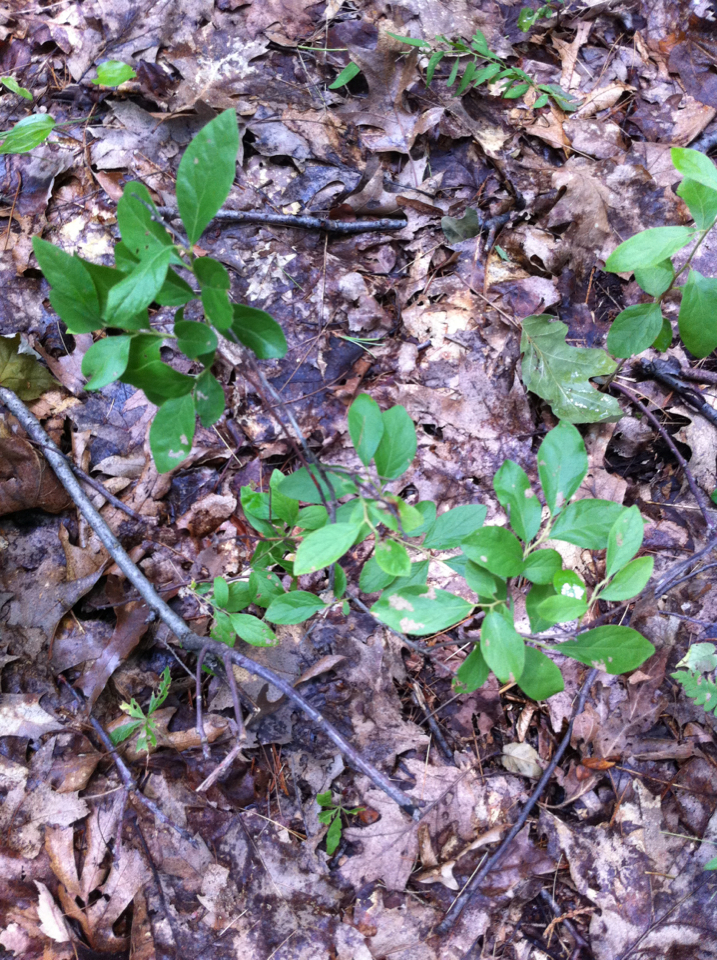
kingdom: Plantae
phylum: Tracheophyta
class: Magnoliopsida
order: Ericales
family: Ericaceae
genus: Gaylussacia
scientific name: Gaylussacia baccata
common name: Black huckleberry
